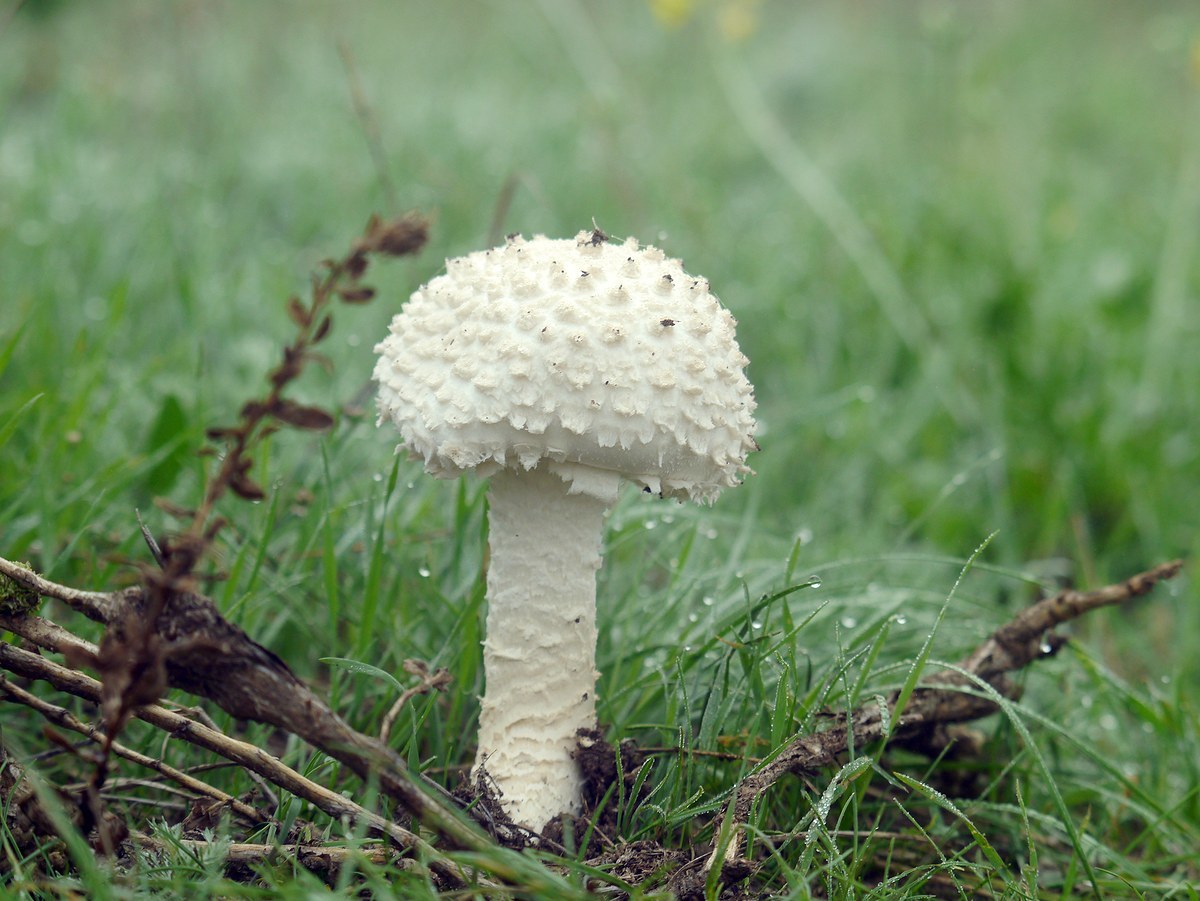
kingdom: Fungi
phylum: Basidiomycota
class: Agaricomycetes
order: Agaricales
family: Amanitaceae
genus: Amanita
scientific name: Amanita vittadinii
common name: Barefoot amanita
